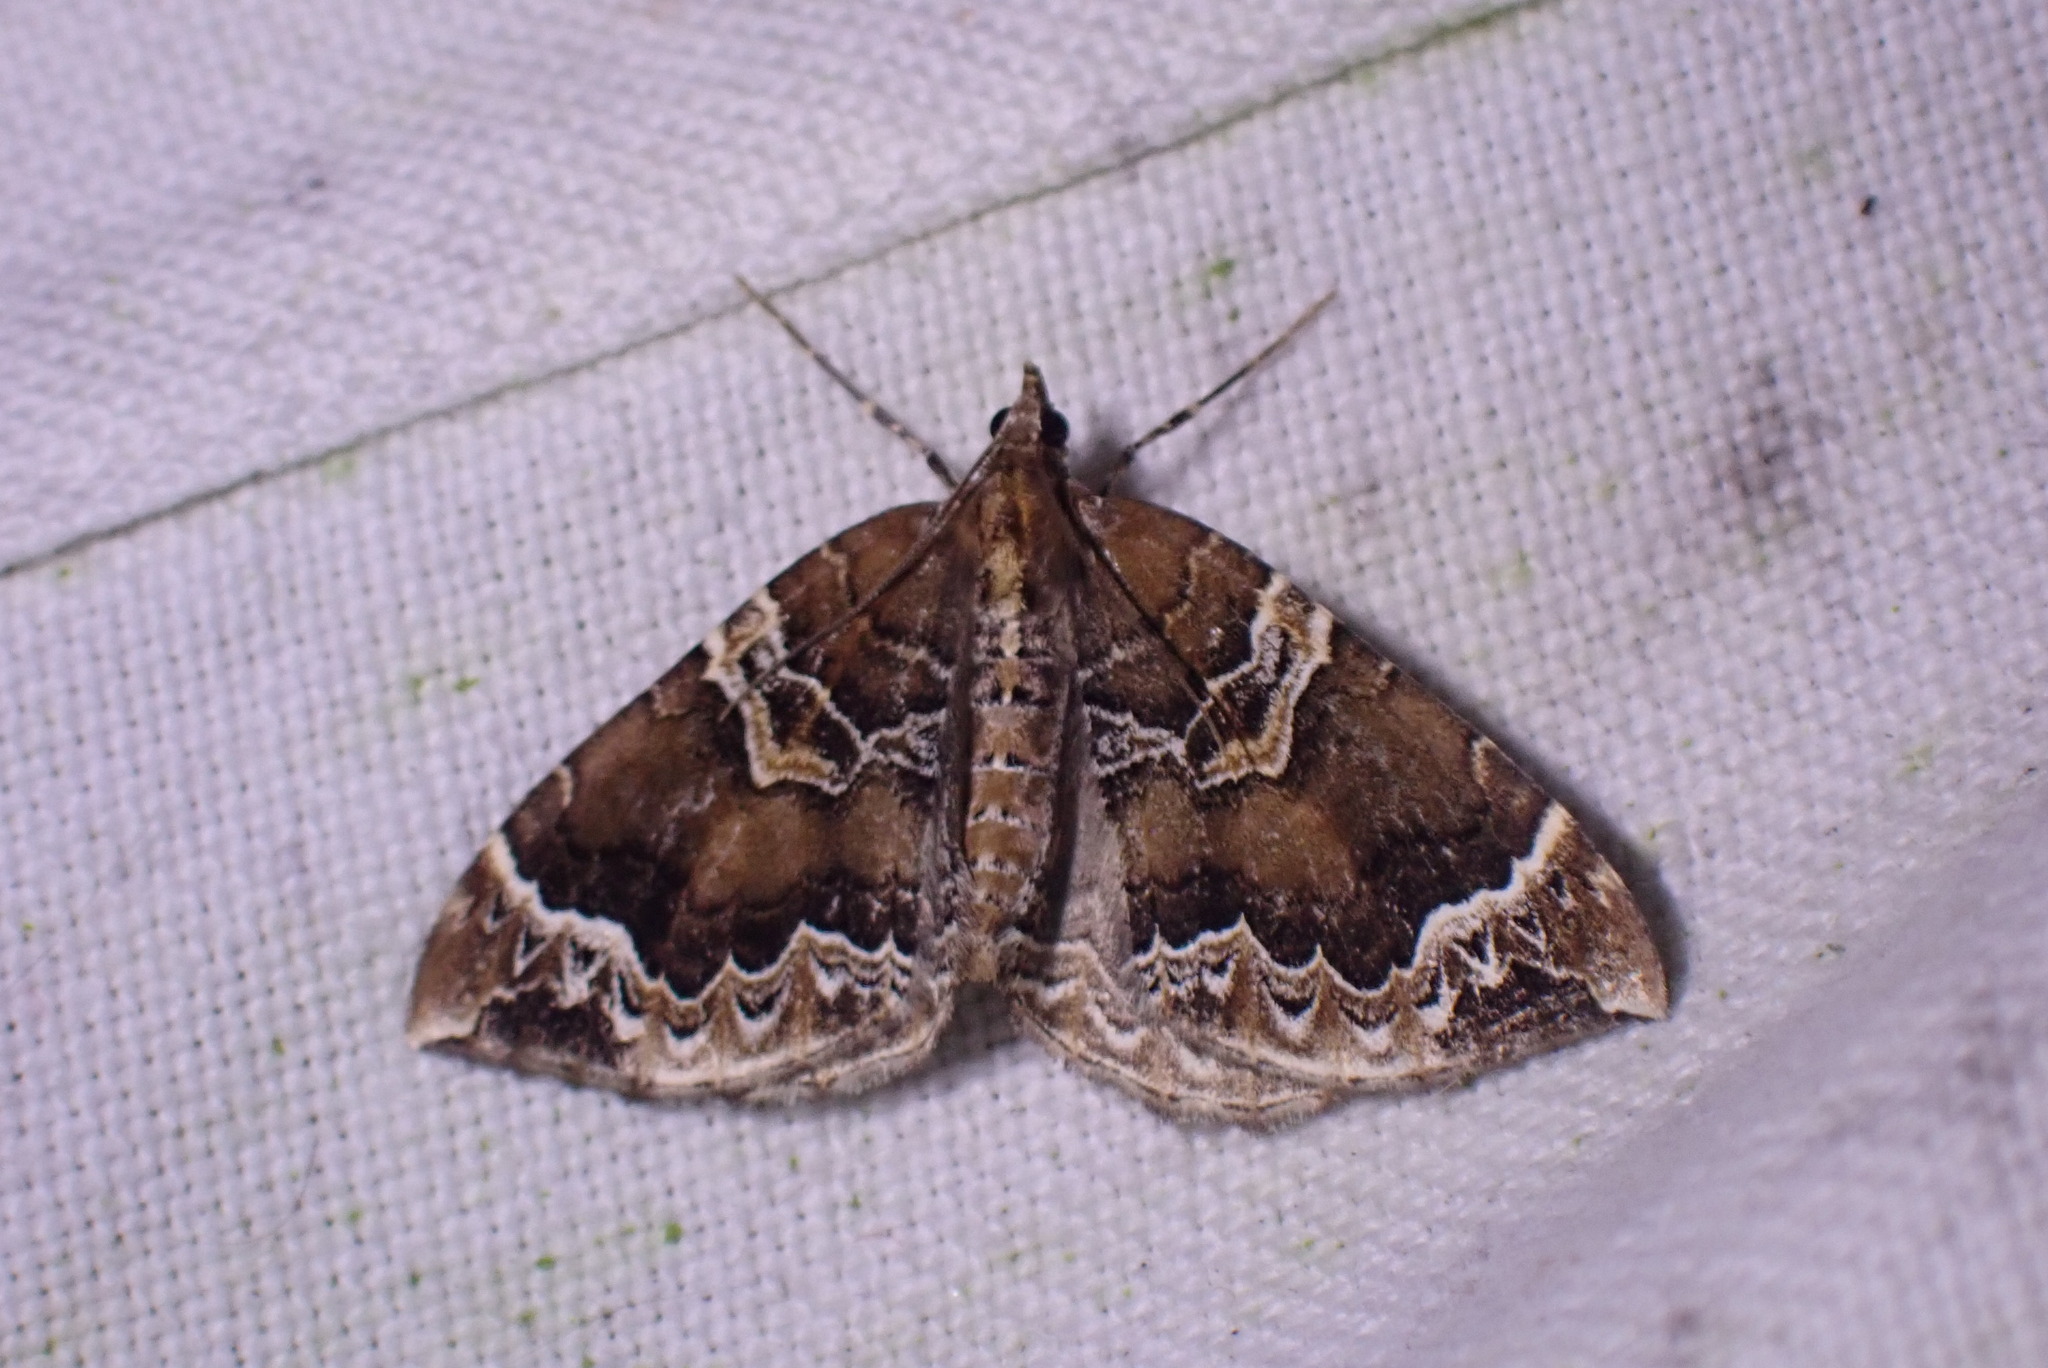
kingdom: Animalia
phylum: Arthropoda
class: Insecta
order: Lepidoptera
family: Geometridae
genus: Eulithis
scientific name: Eulithis prunata
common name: Phoenix
